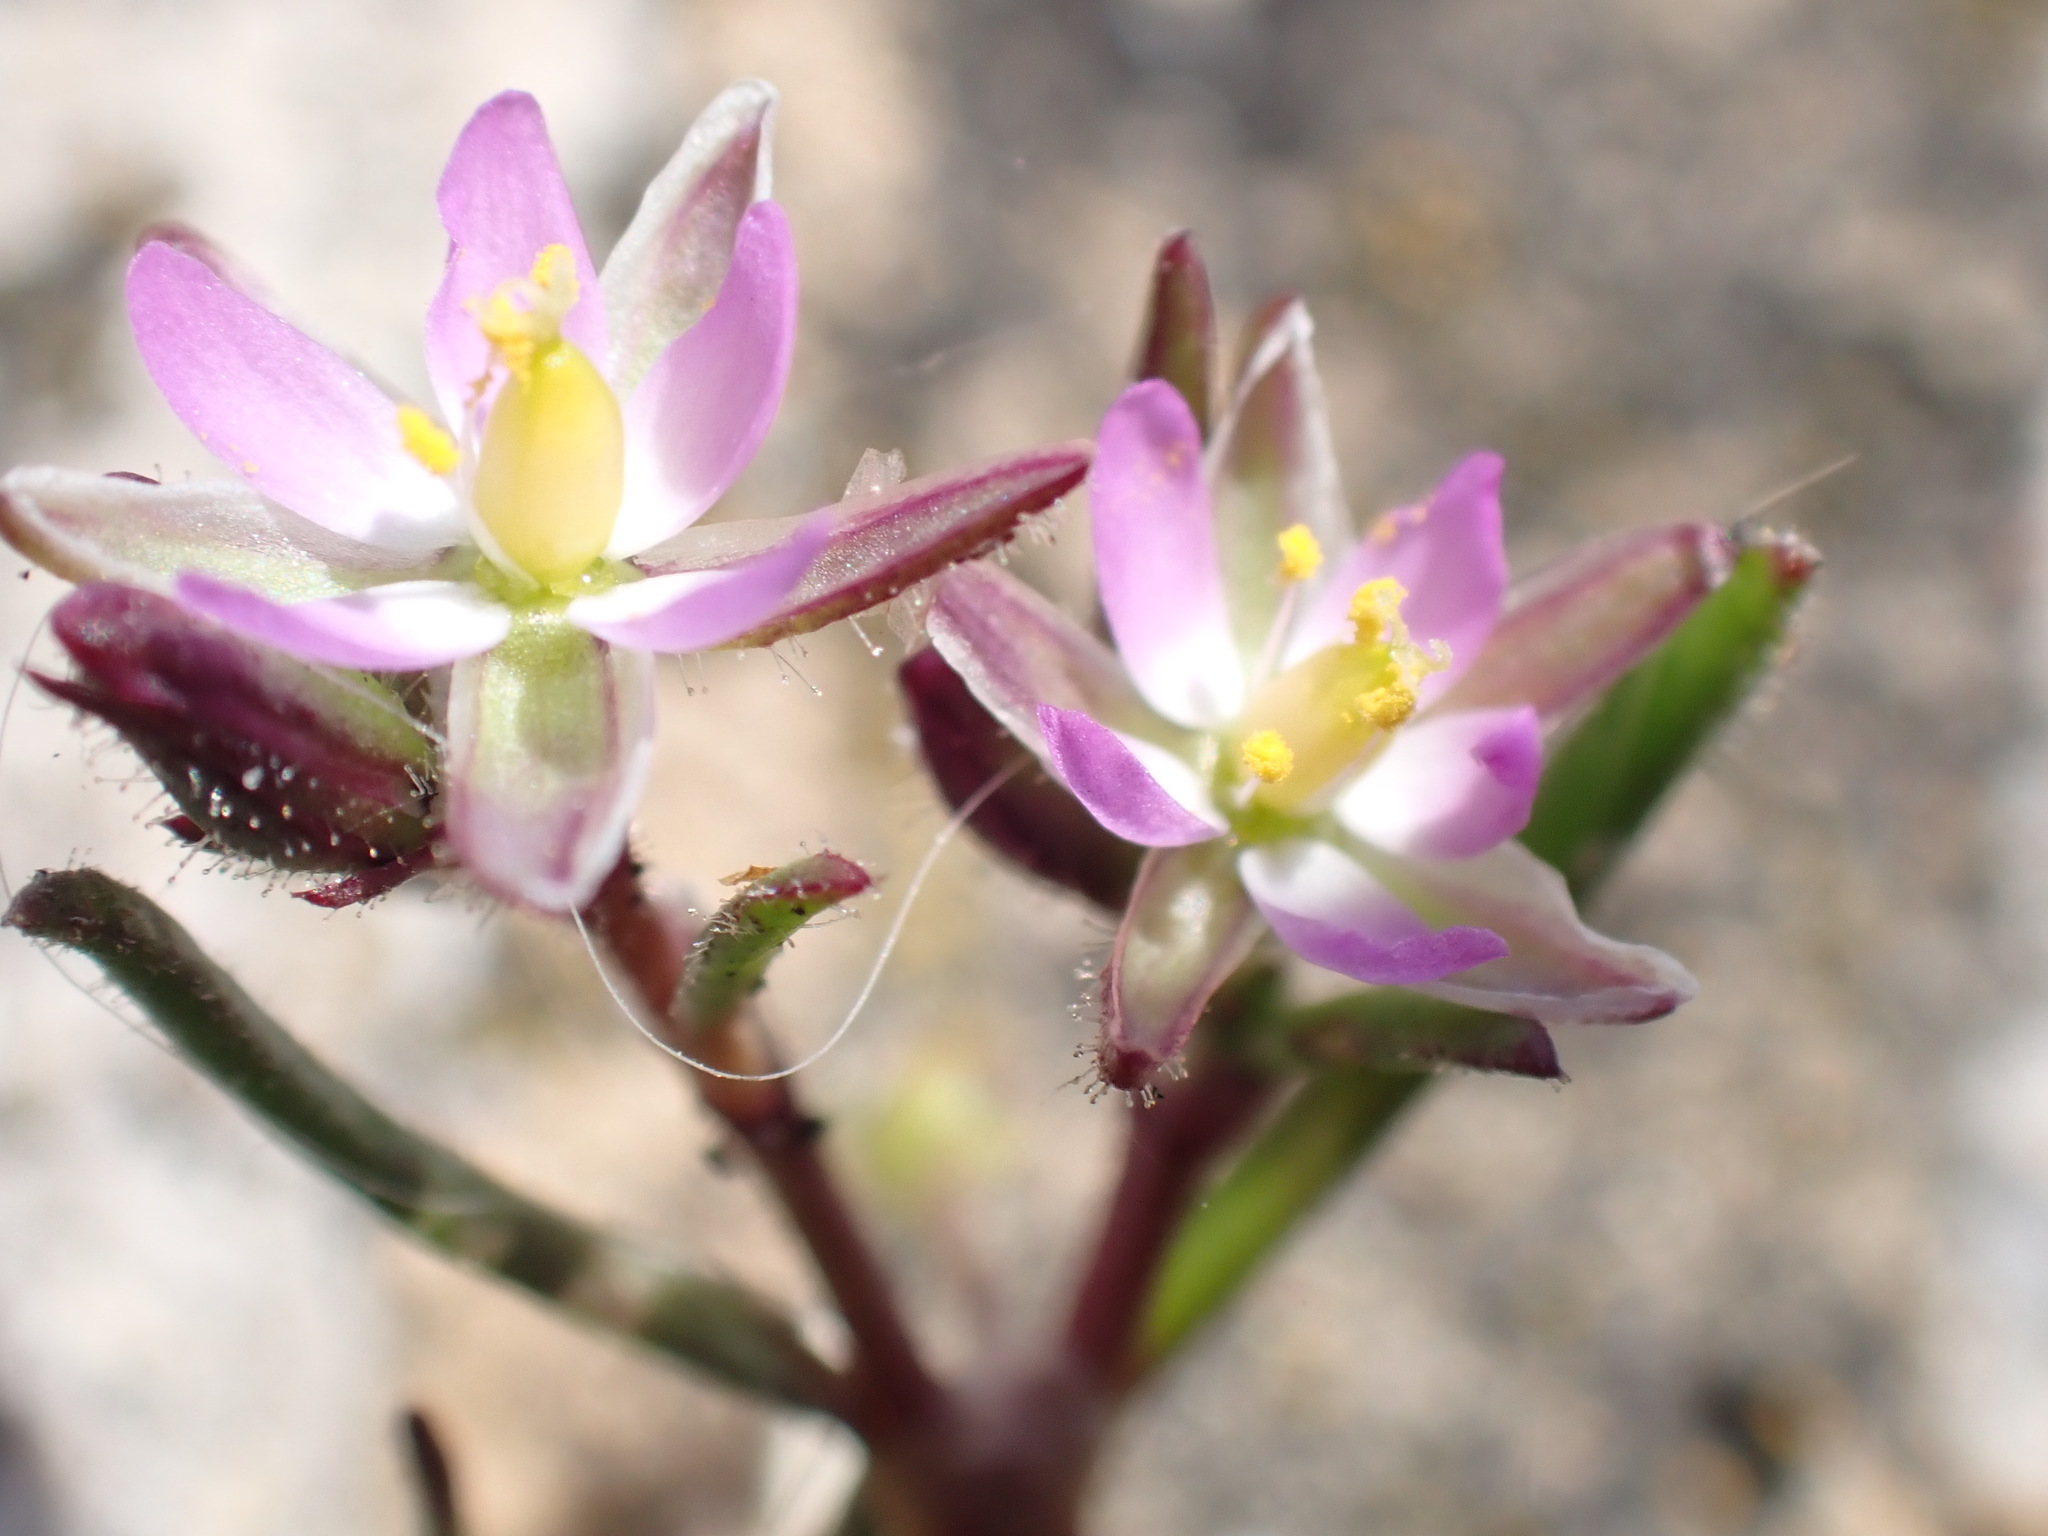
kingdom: Plantae
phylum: Tracheophyta
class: Magnoliopsida
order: Caryophyllales
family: Caryophyllaceae
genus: Spergularia
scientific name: Spergularia marina
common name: Lesser sea-spurrey
